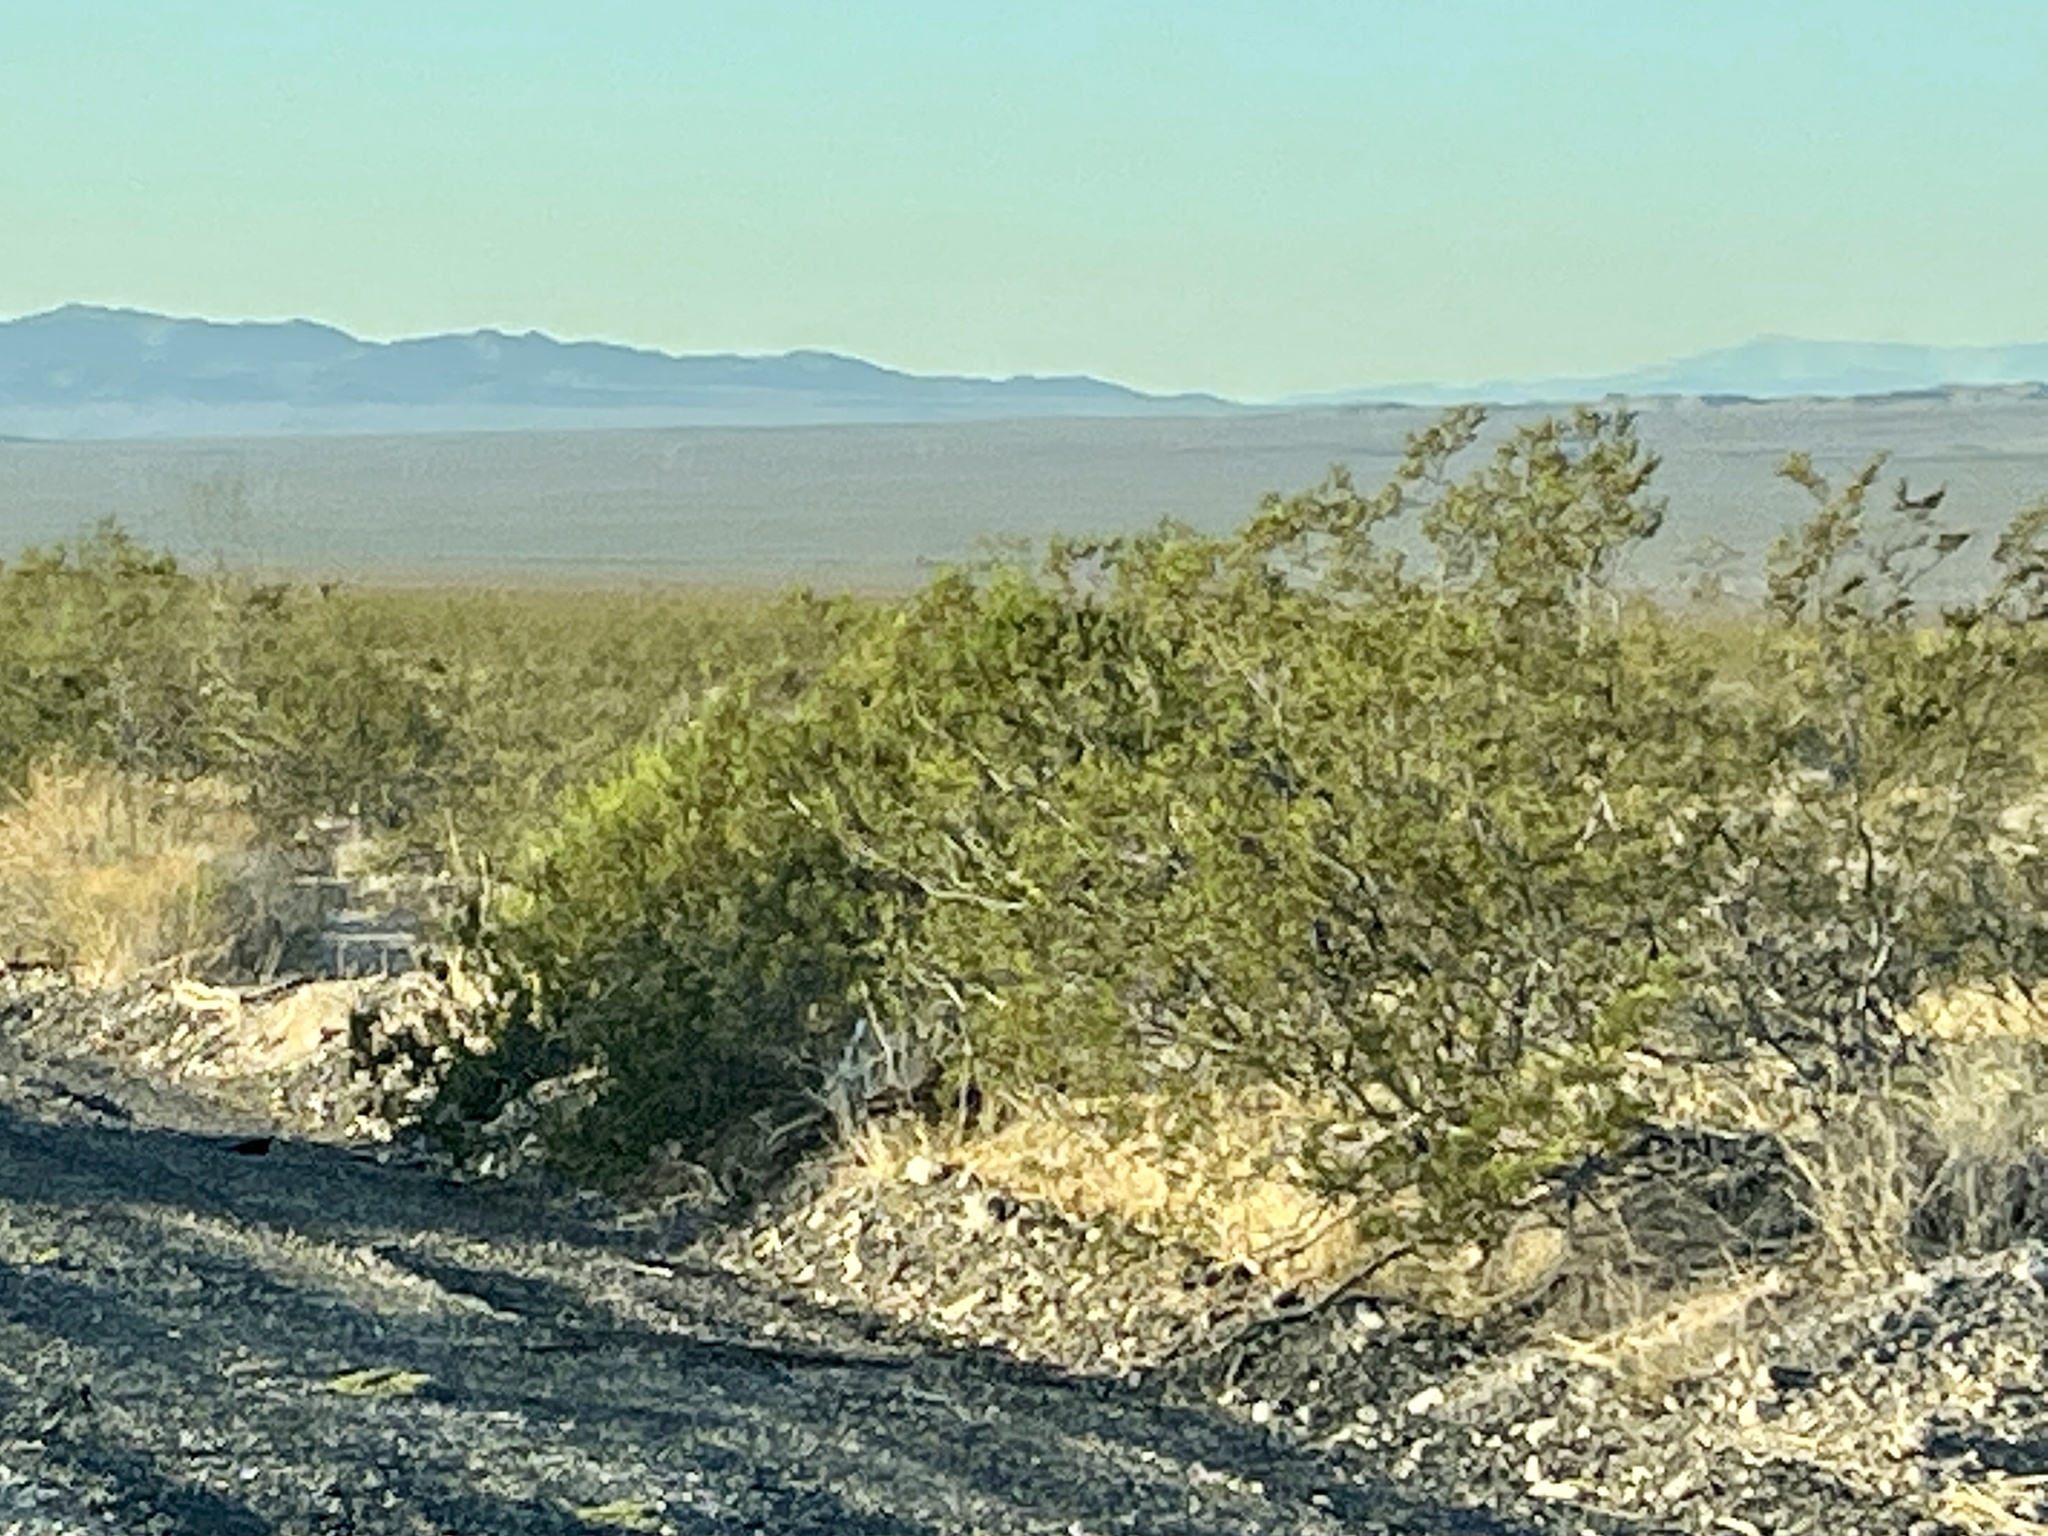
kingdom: Plantae
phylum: Tracheophyta
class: Magnoliopsida
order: Zygophyllales
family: Zygophyllaceae
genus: Larrea
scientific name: Larrea tridentata
